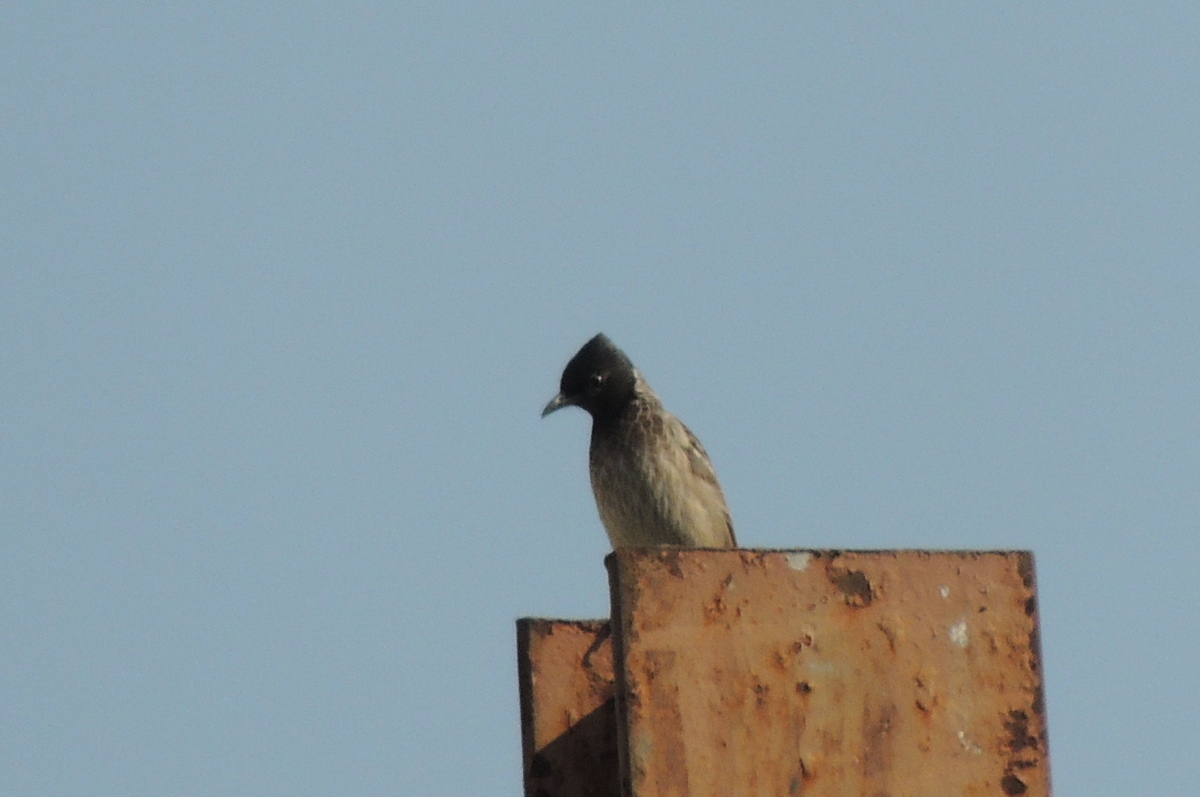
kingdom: Animalia
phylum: Chordata
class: Aves
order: Passeriformes
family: Pycnonotidae
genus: Pycnonotus
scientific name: Pycnonotus cafer
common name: Red-vented bulbul
